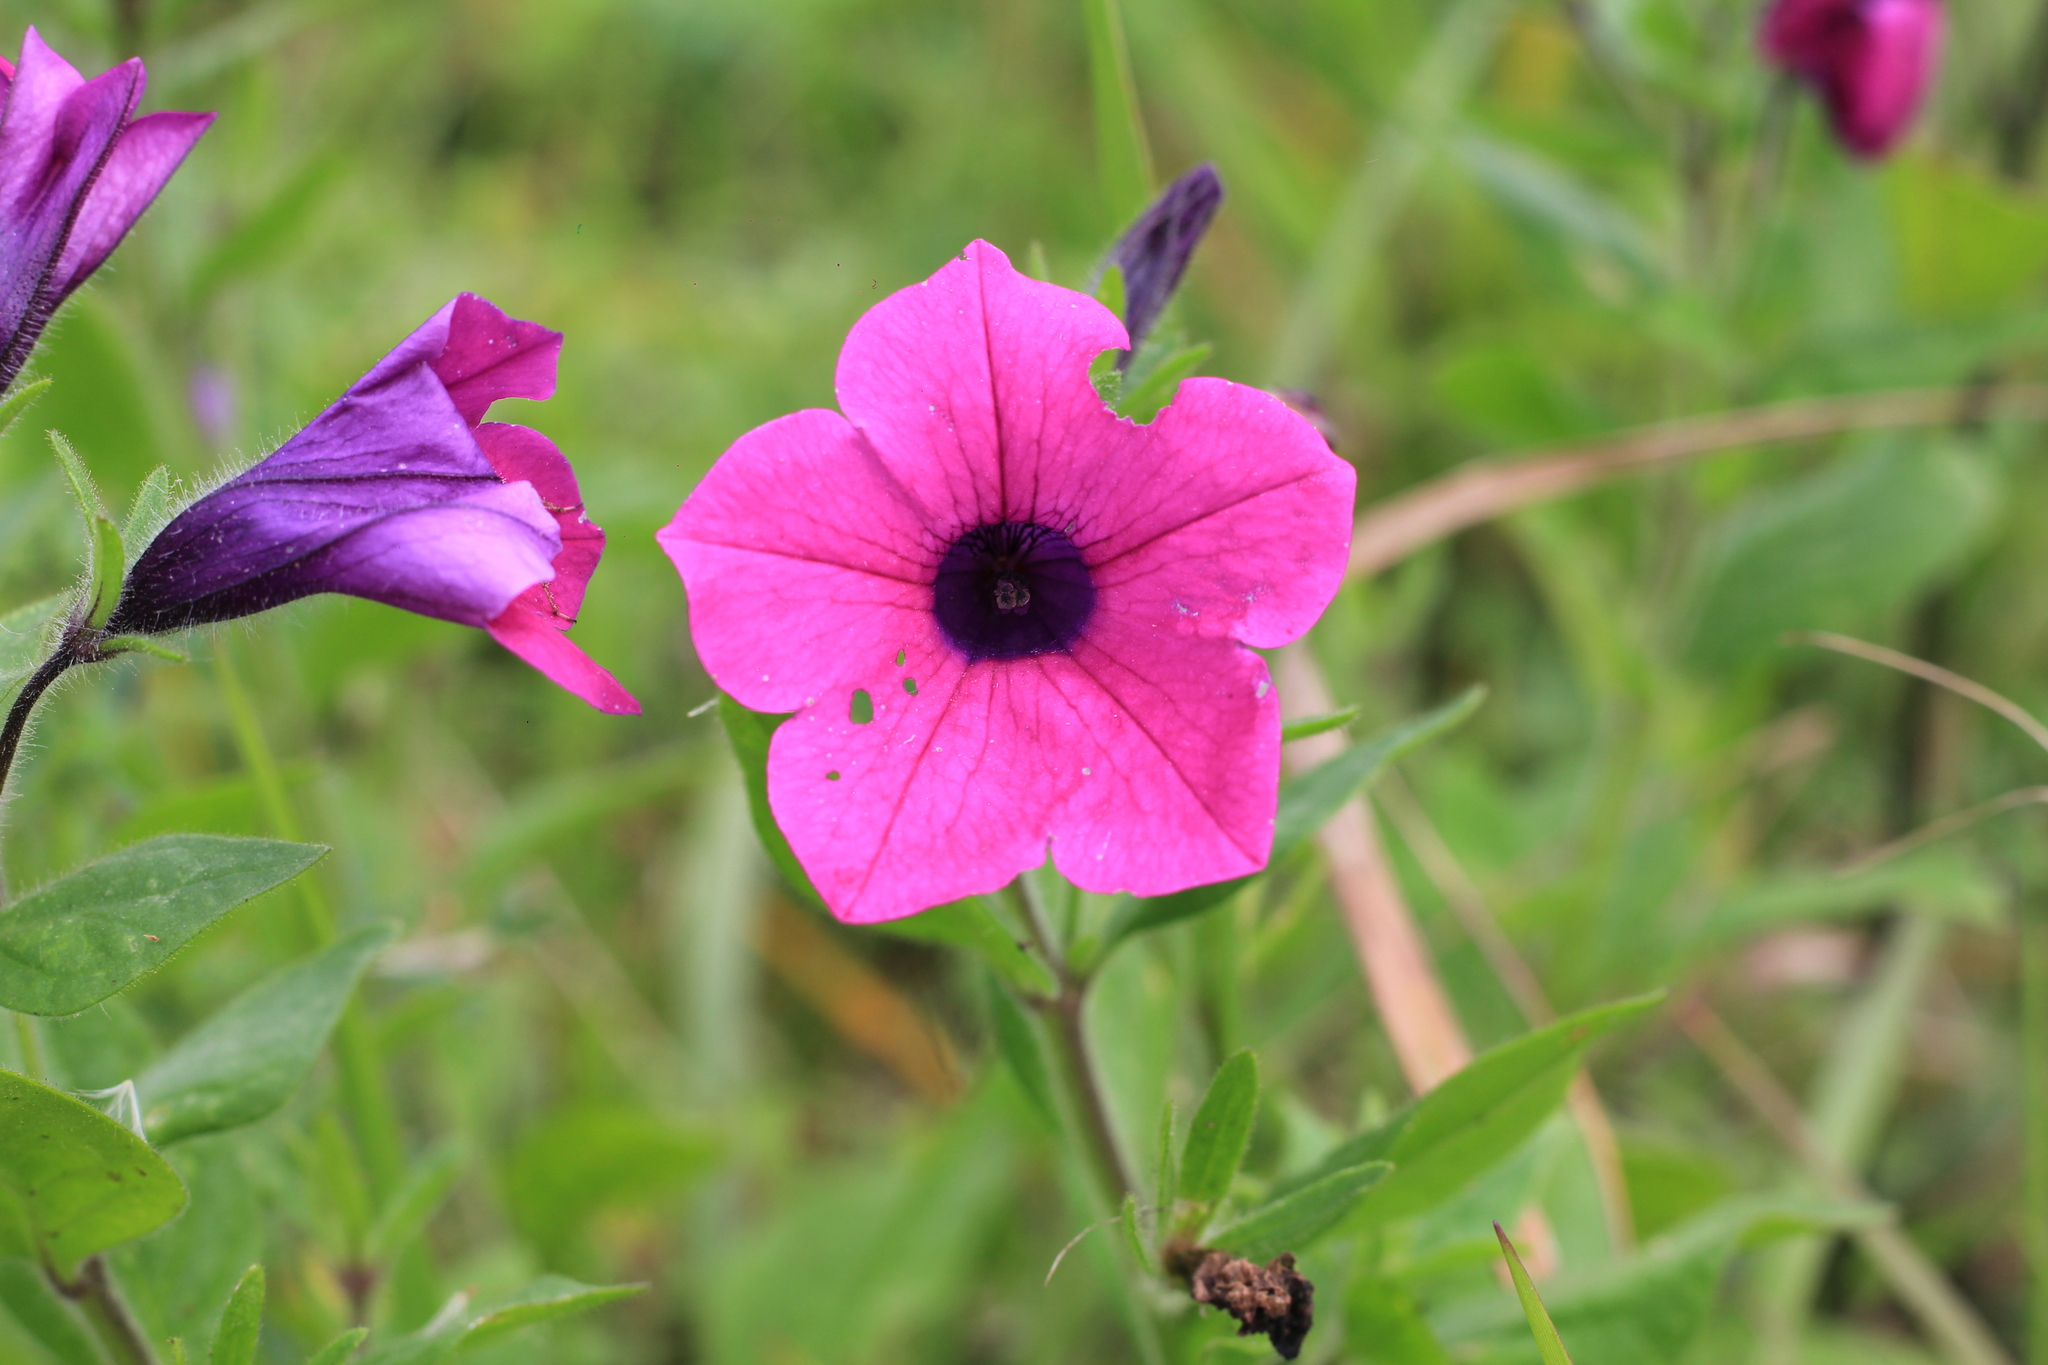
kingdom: Plantae
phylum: Tracheophyta
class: Magnoliopsida
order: Solanales
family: Solanaceae
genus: Petunia
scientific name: Petunia integrifolia
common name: Violet-flower petunia
